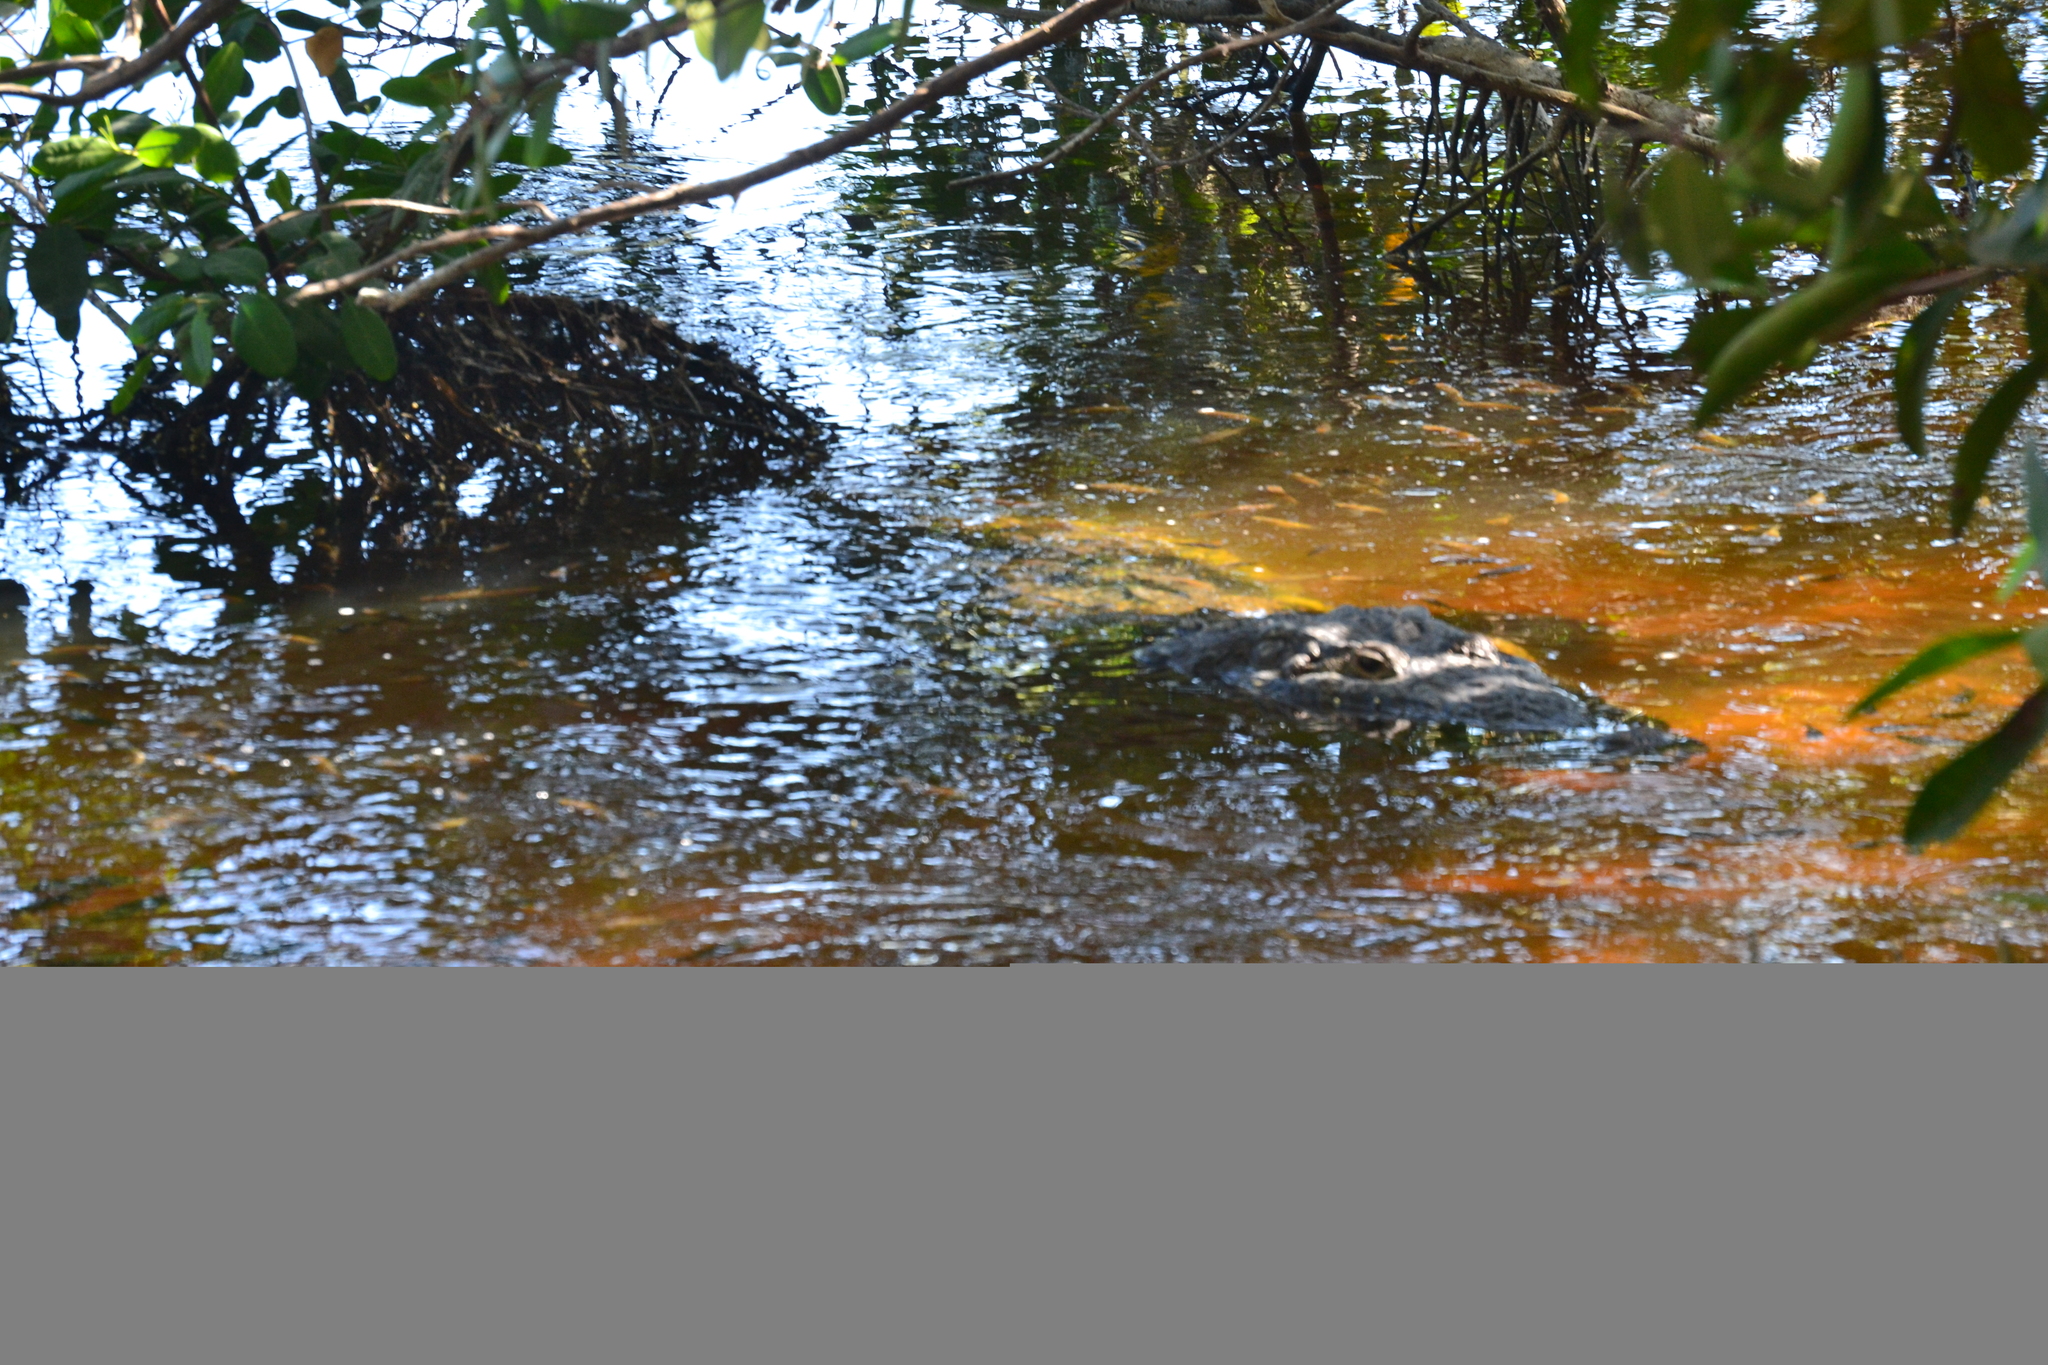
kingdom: Animalia
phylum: Chordata
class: Crocodylia
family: Crocodylidae
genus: Crocodylus
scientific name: Crocodylus moreletii
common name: Morelet's crocodile
